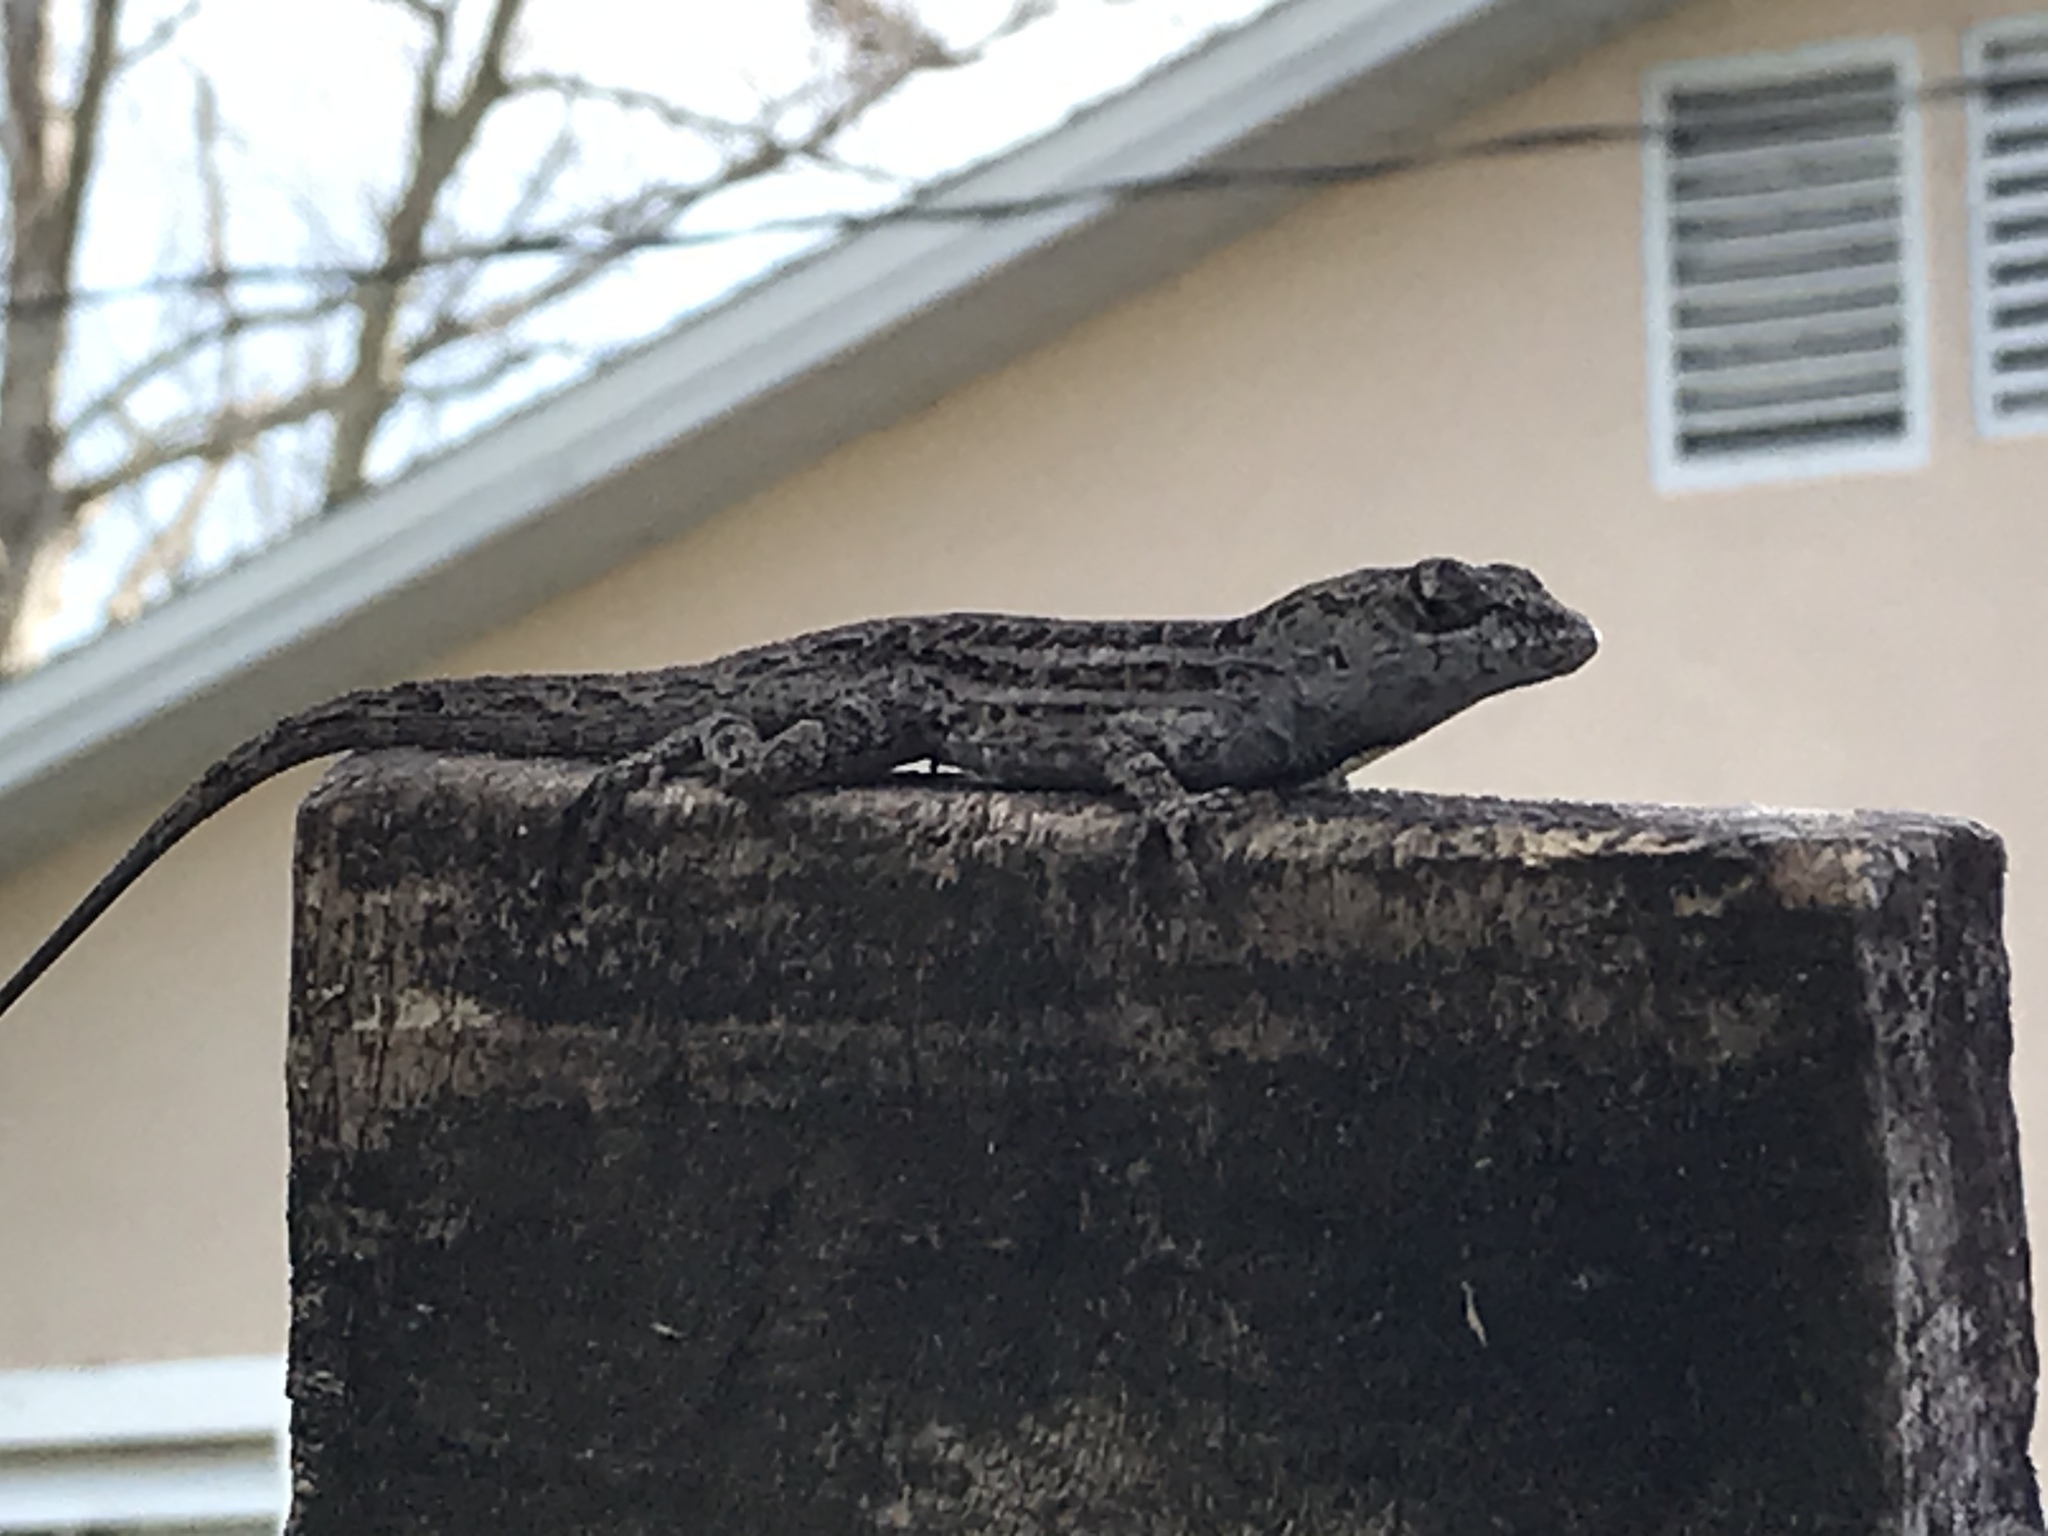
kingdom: Animalia
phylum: Chordata
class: Squamata
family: Dactyloidae
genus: Anolis
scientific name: Anolis sagrei
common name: Brown anole
